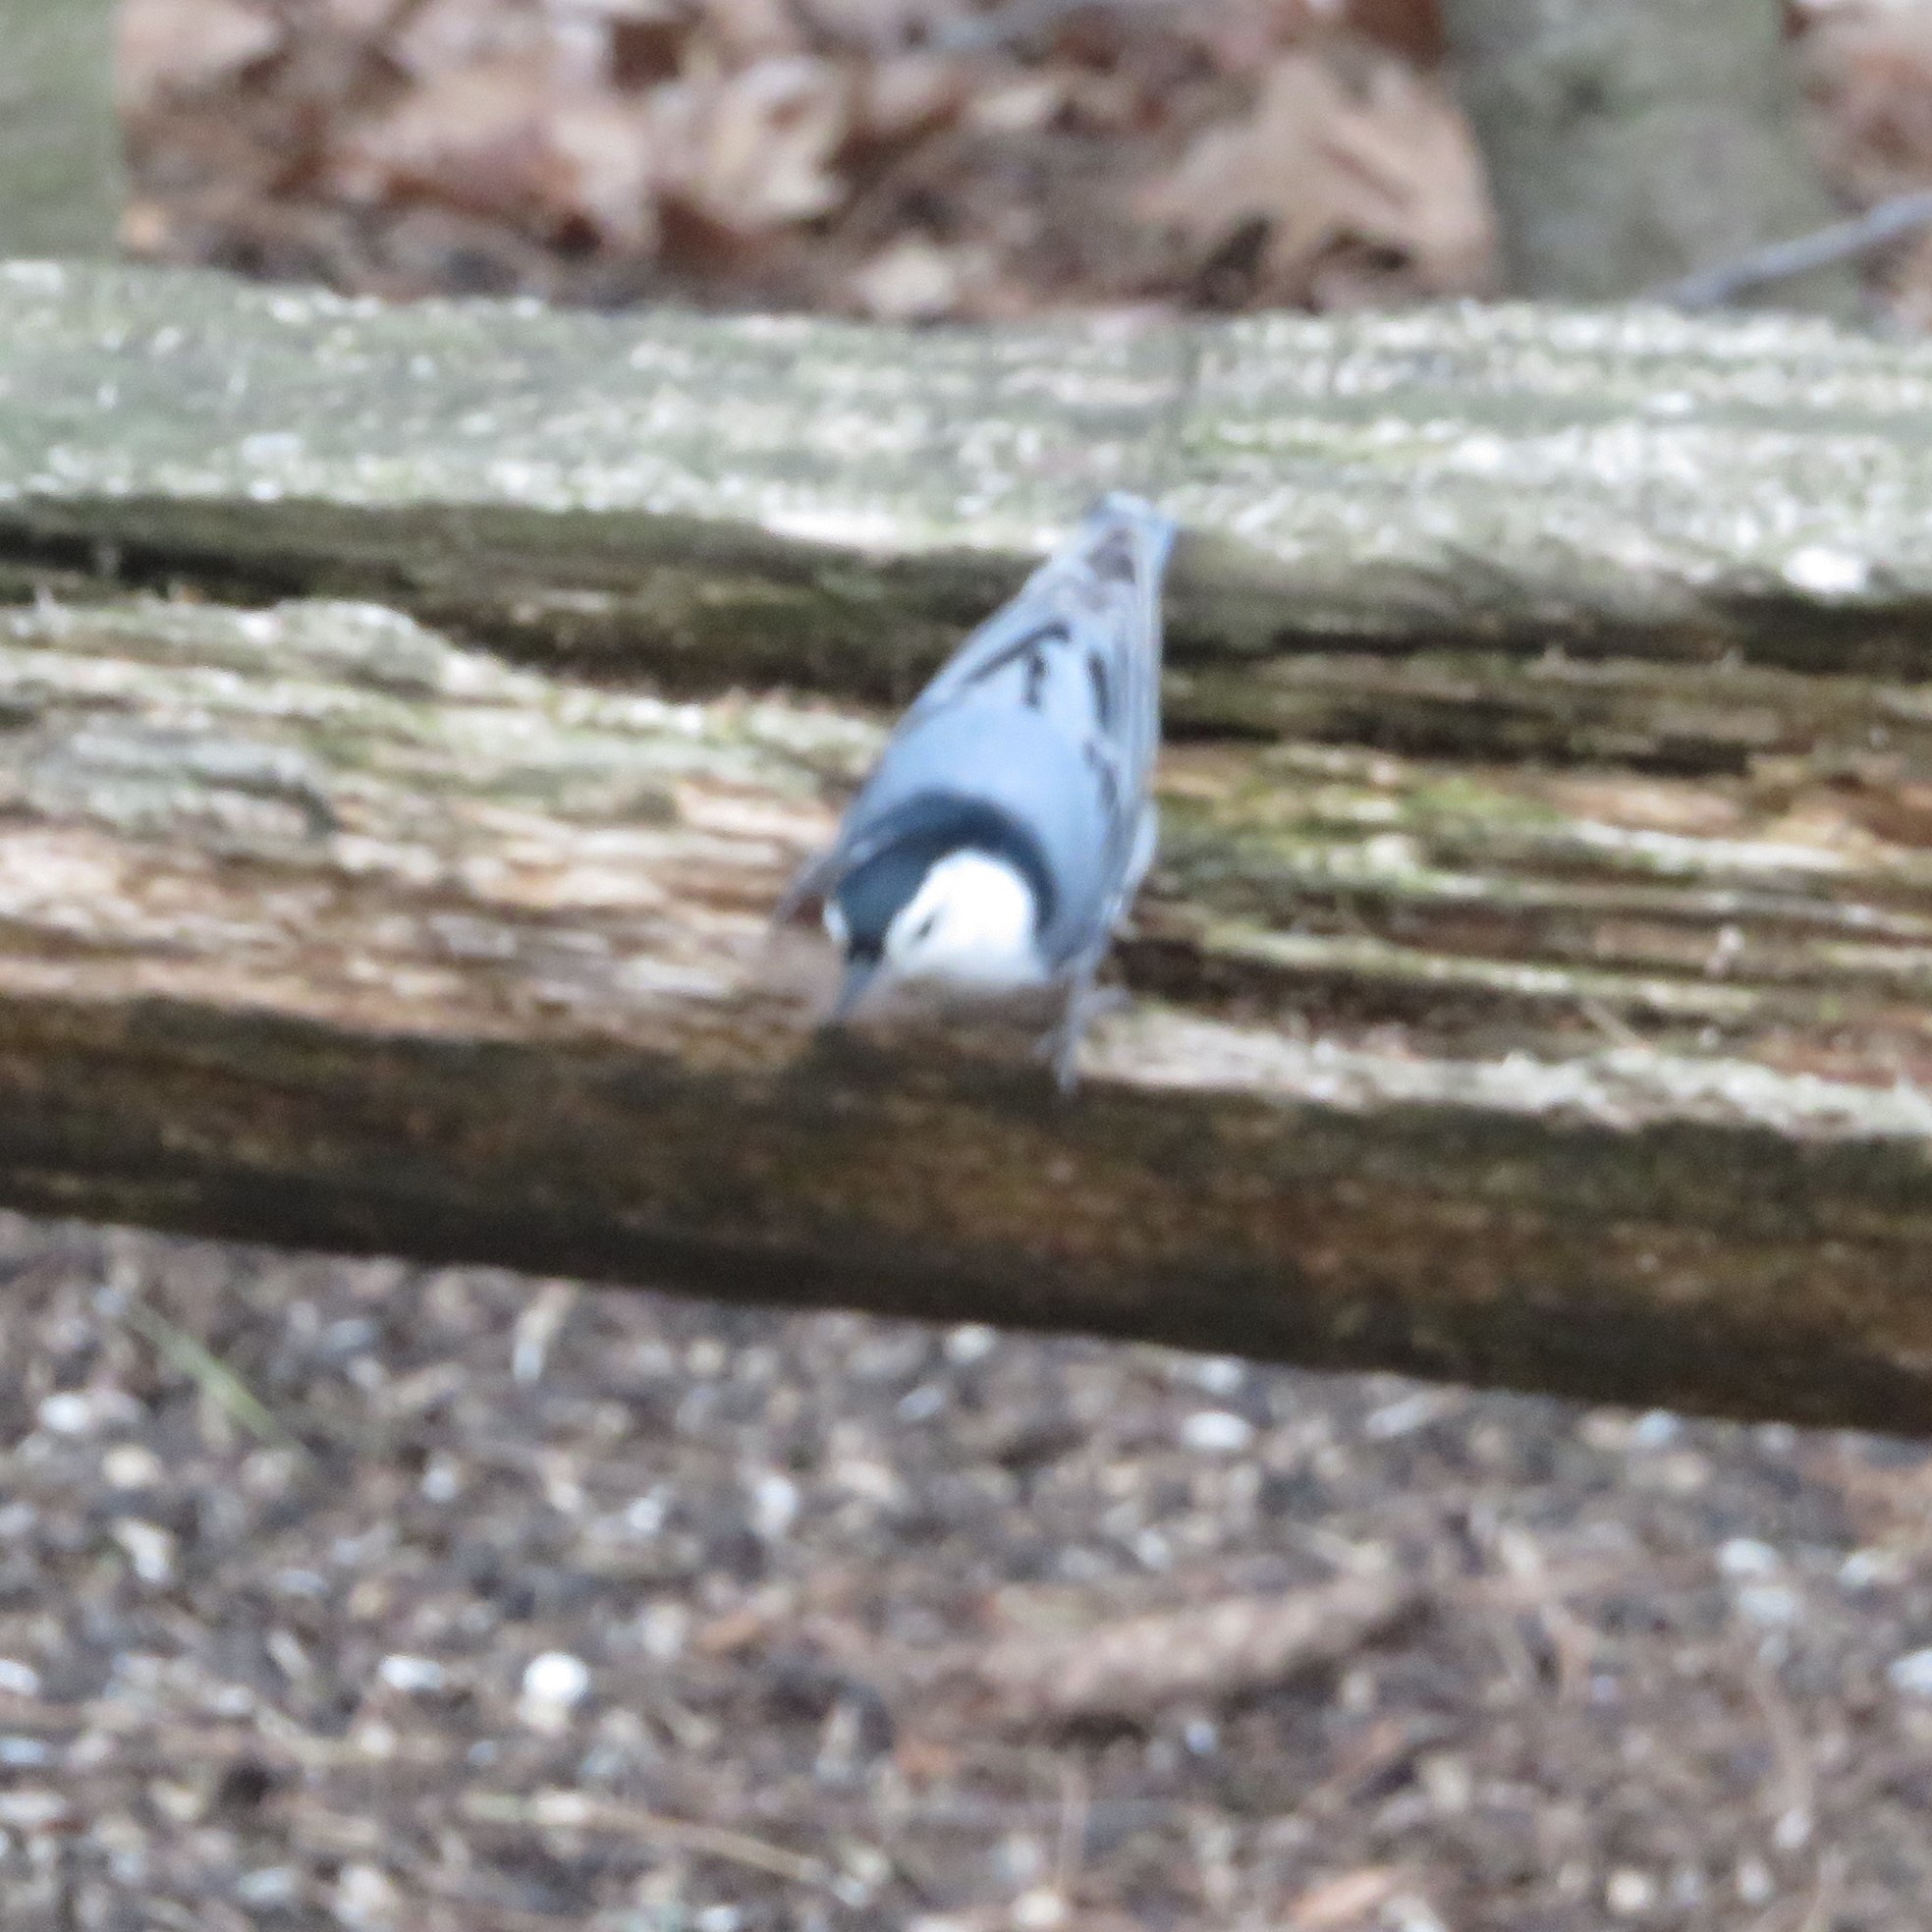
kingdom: Animalia
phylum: Chordata
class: Aves
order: Passeriformes
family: Sittidae
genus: Sitta
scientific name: Sitta carolinensis
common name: White-breasted nuthatch
